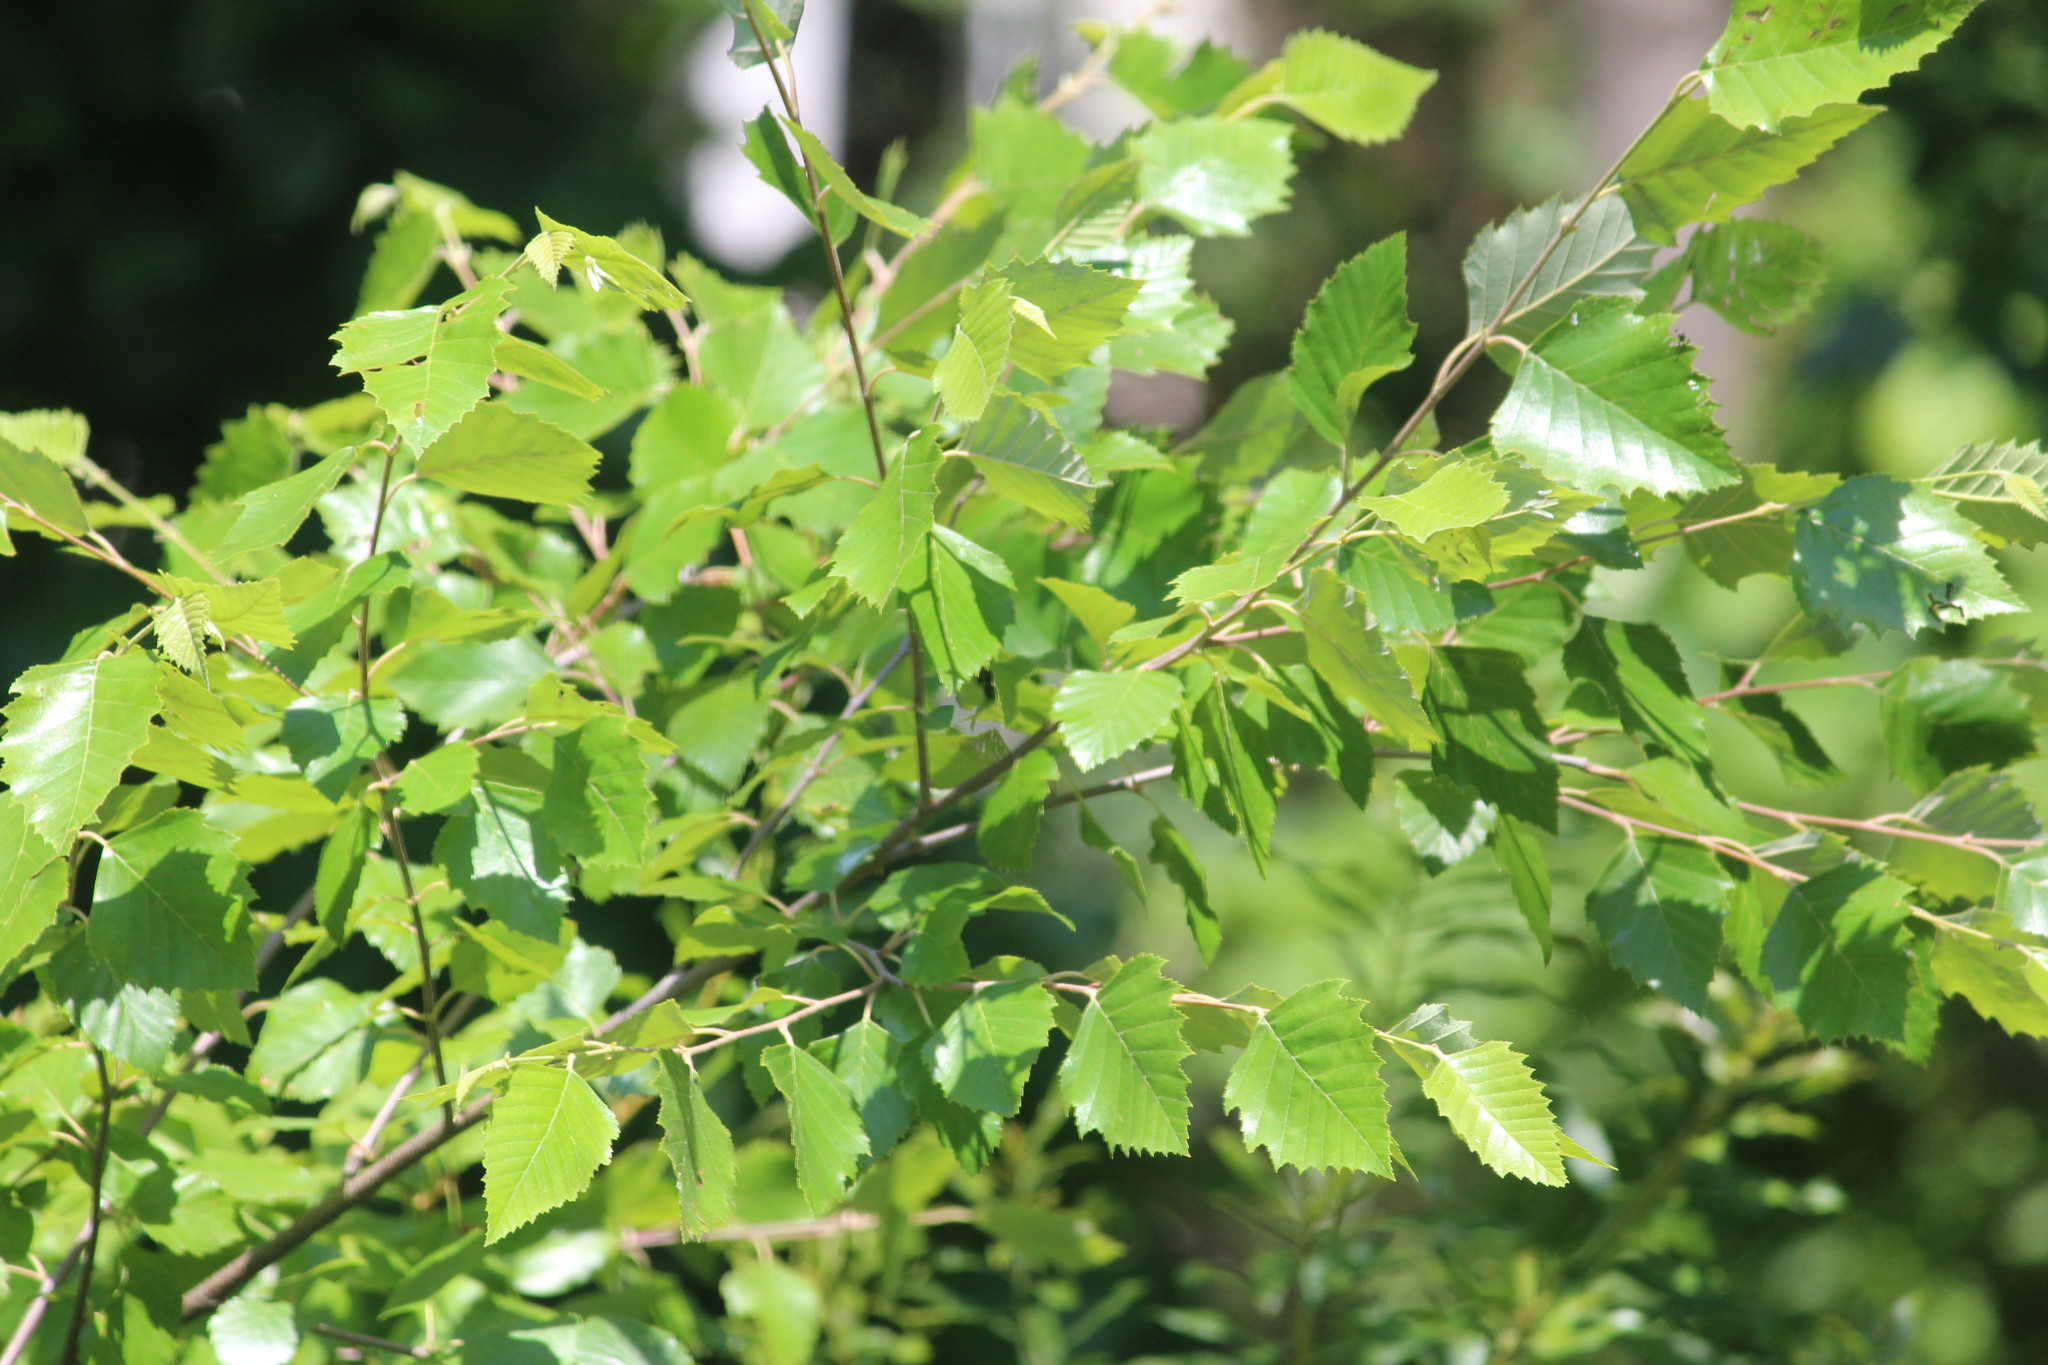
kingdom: Plantae
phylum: Tracheophyta
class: Magnoliopsida
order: Fagales
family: Betulaceae
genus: Betula
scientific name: Betula nigra
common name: Black birch
